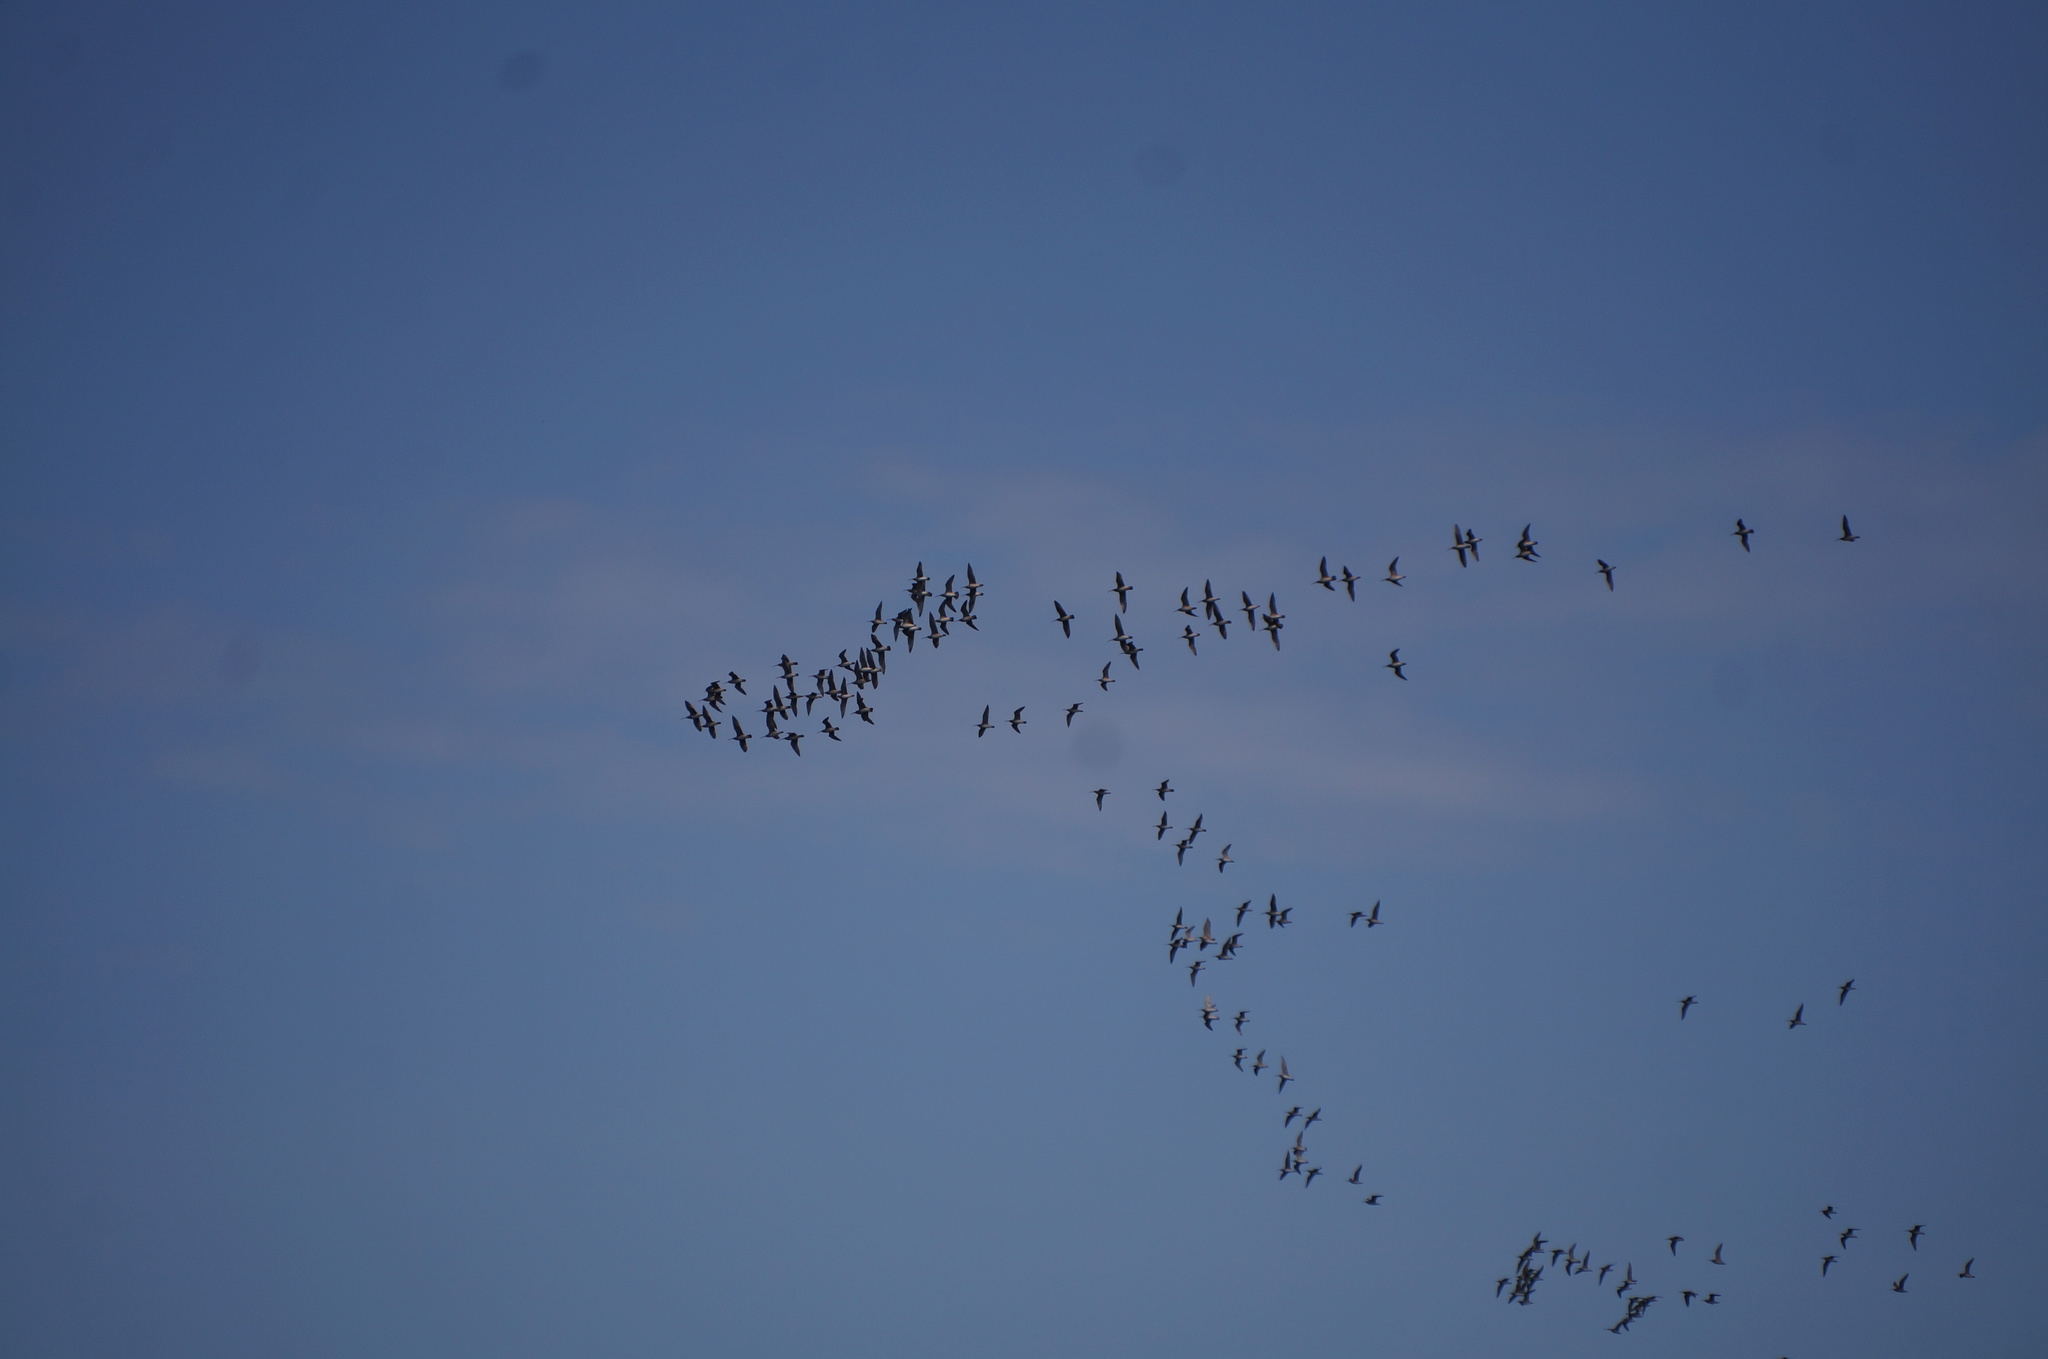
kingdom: Animalia
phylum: Chordata
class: Aves
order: Charadriiformes
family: Scolopacidae
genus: Numenius
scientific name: Numenius phaeopus
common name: Whimbrel
